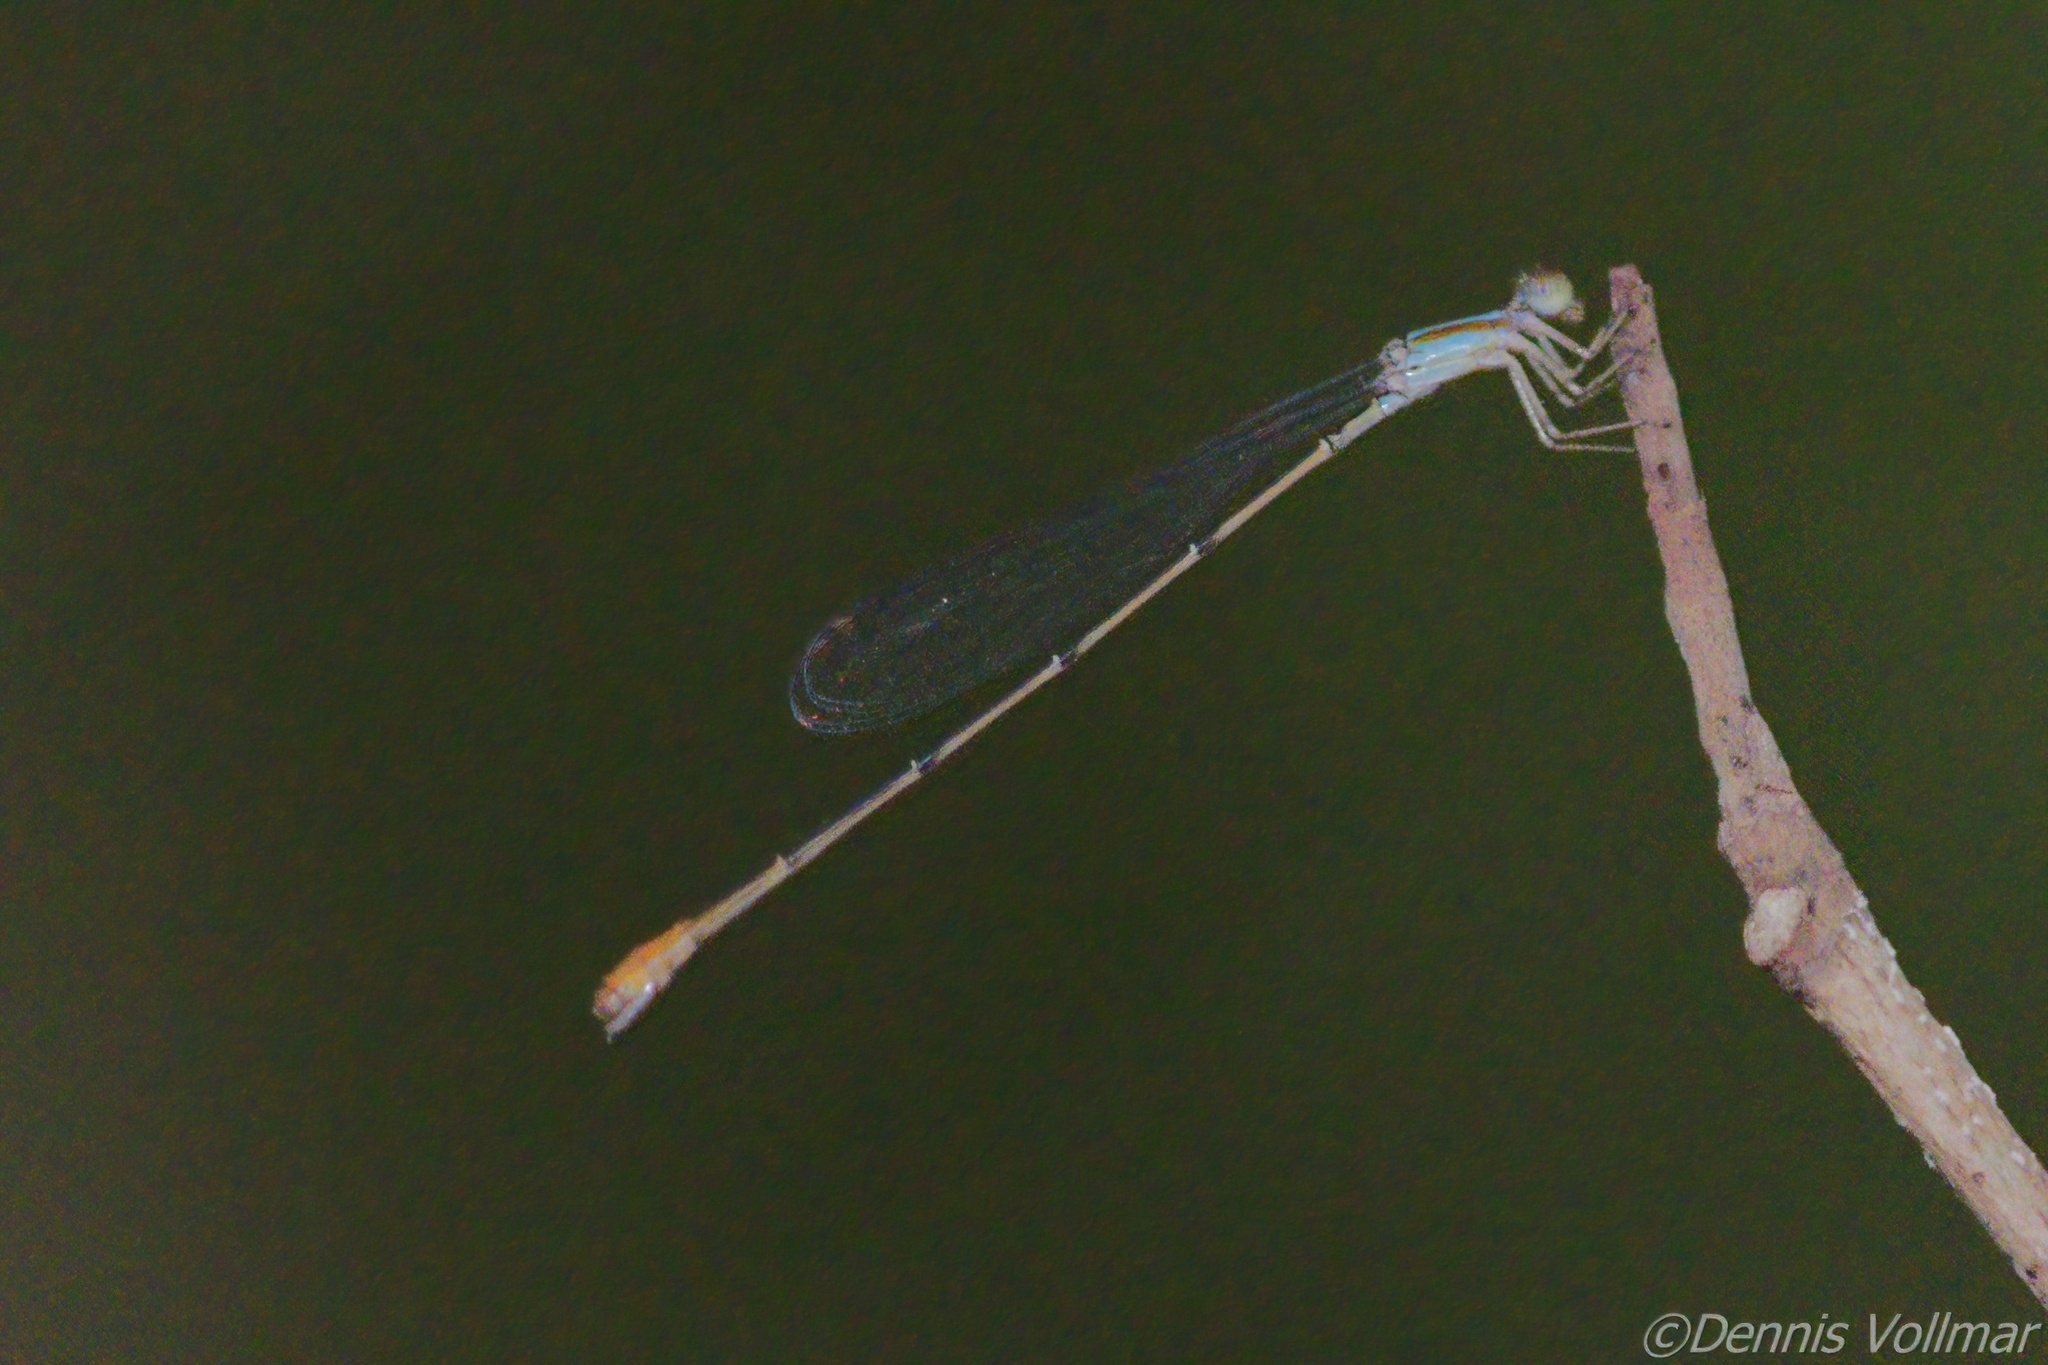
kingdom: Animalia
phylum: Arthropoda
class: Insecta
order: Odonata
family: Coenagrionidae
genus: Leptobasis
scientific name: Leptobasis lucifer
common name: Lucifer swampdamsel
